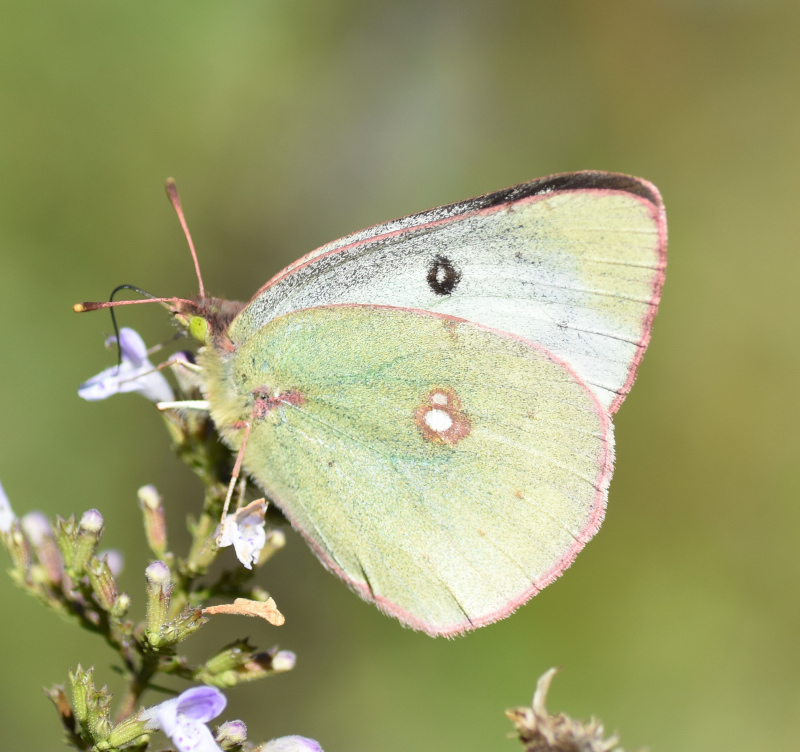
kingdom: Animalia
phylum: Arthropoda
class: Insecta
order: Lepidoptera
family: Pieridae
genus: Colias
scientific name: Colias philodice
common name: Clouded sulphur
